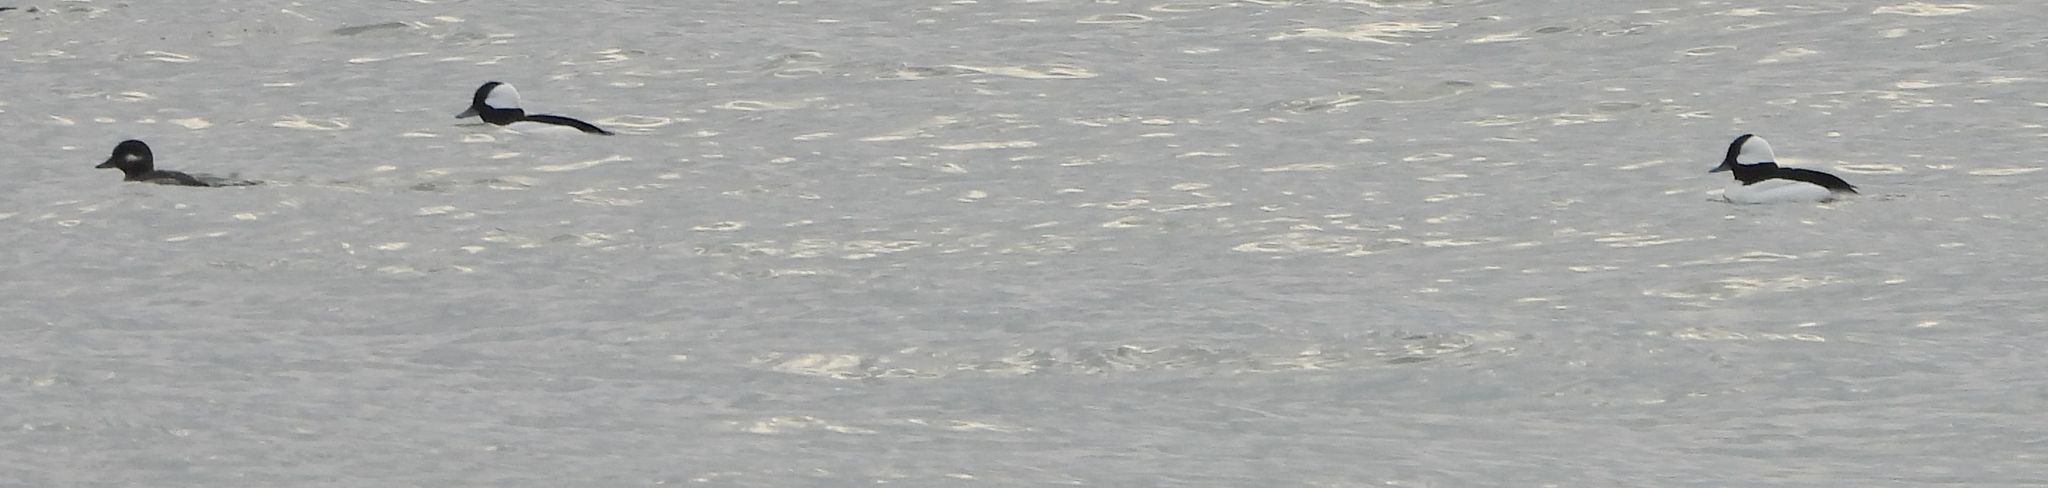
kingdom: Animalia
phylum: Chordata
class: Aves
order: Anseriformes
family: Anatidae
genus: Bucephala
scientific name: Bucephala albeola
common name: Bufflehead
